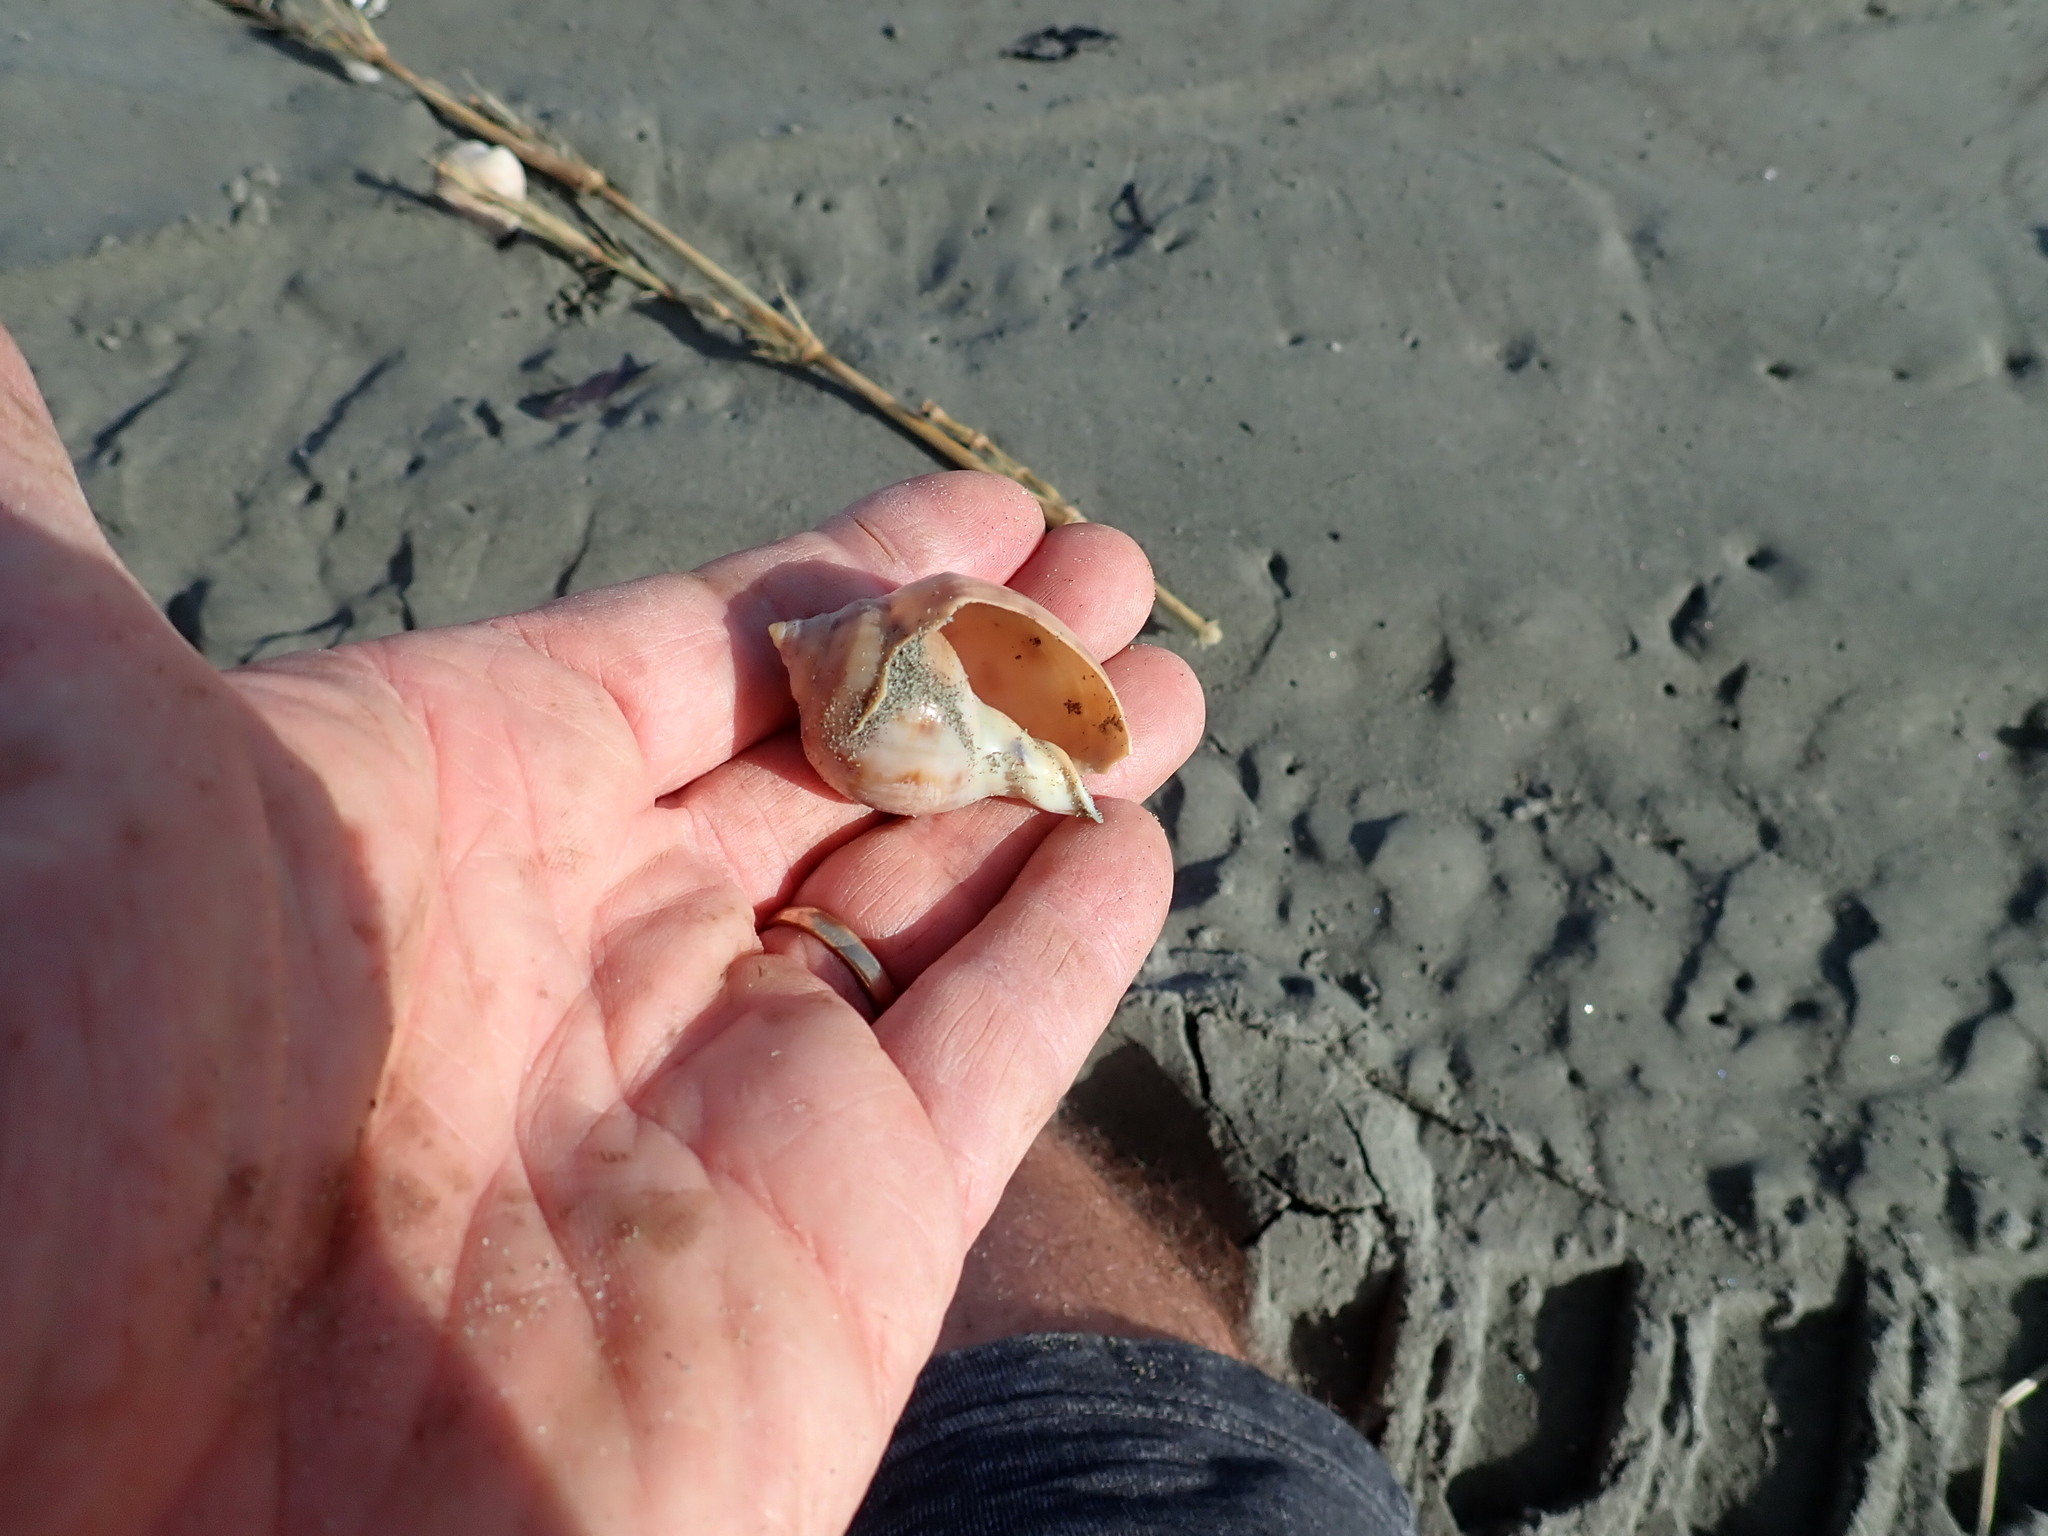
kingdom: Animalia
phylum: Mollusca
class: Gastropoda
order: Littorinimorpha
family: Cassidae
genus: Semicassis
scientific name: Semicassis pyrum
